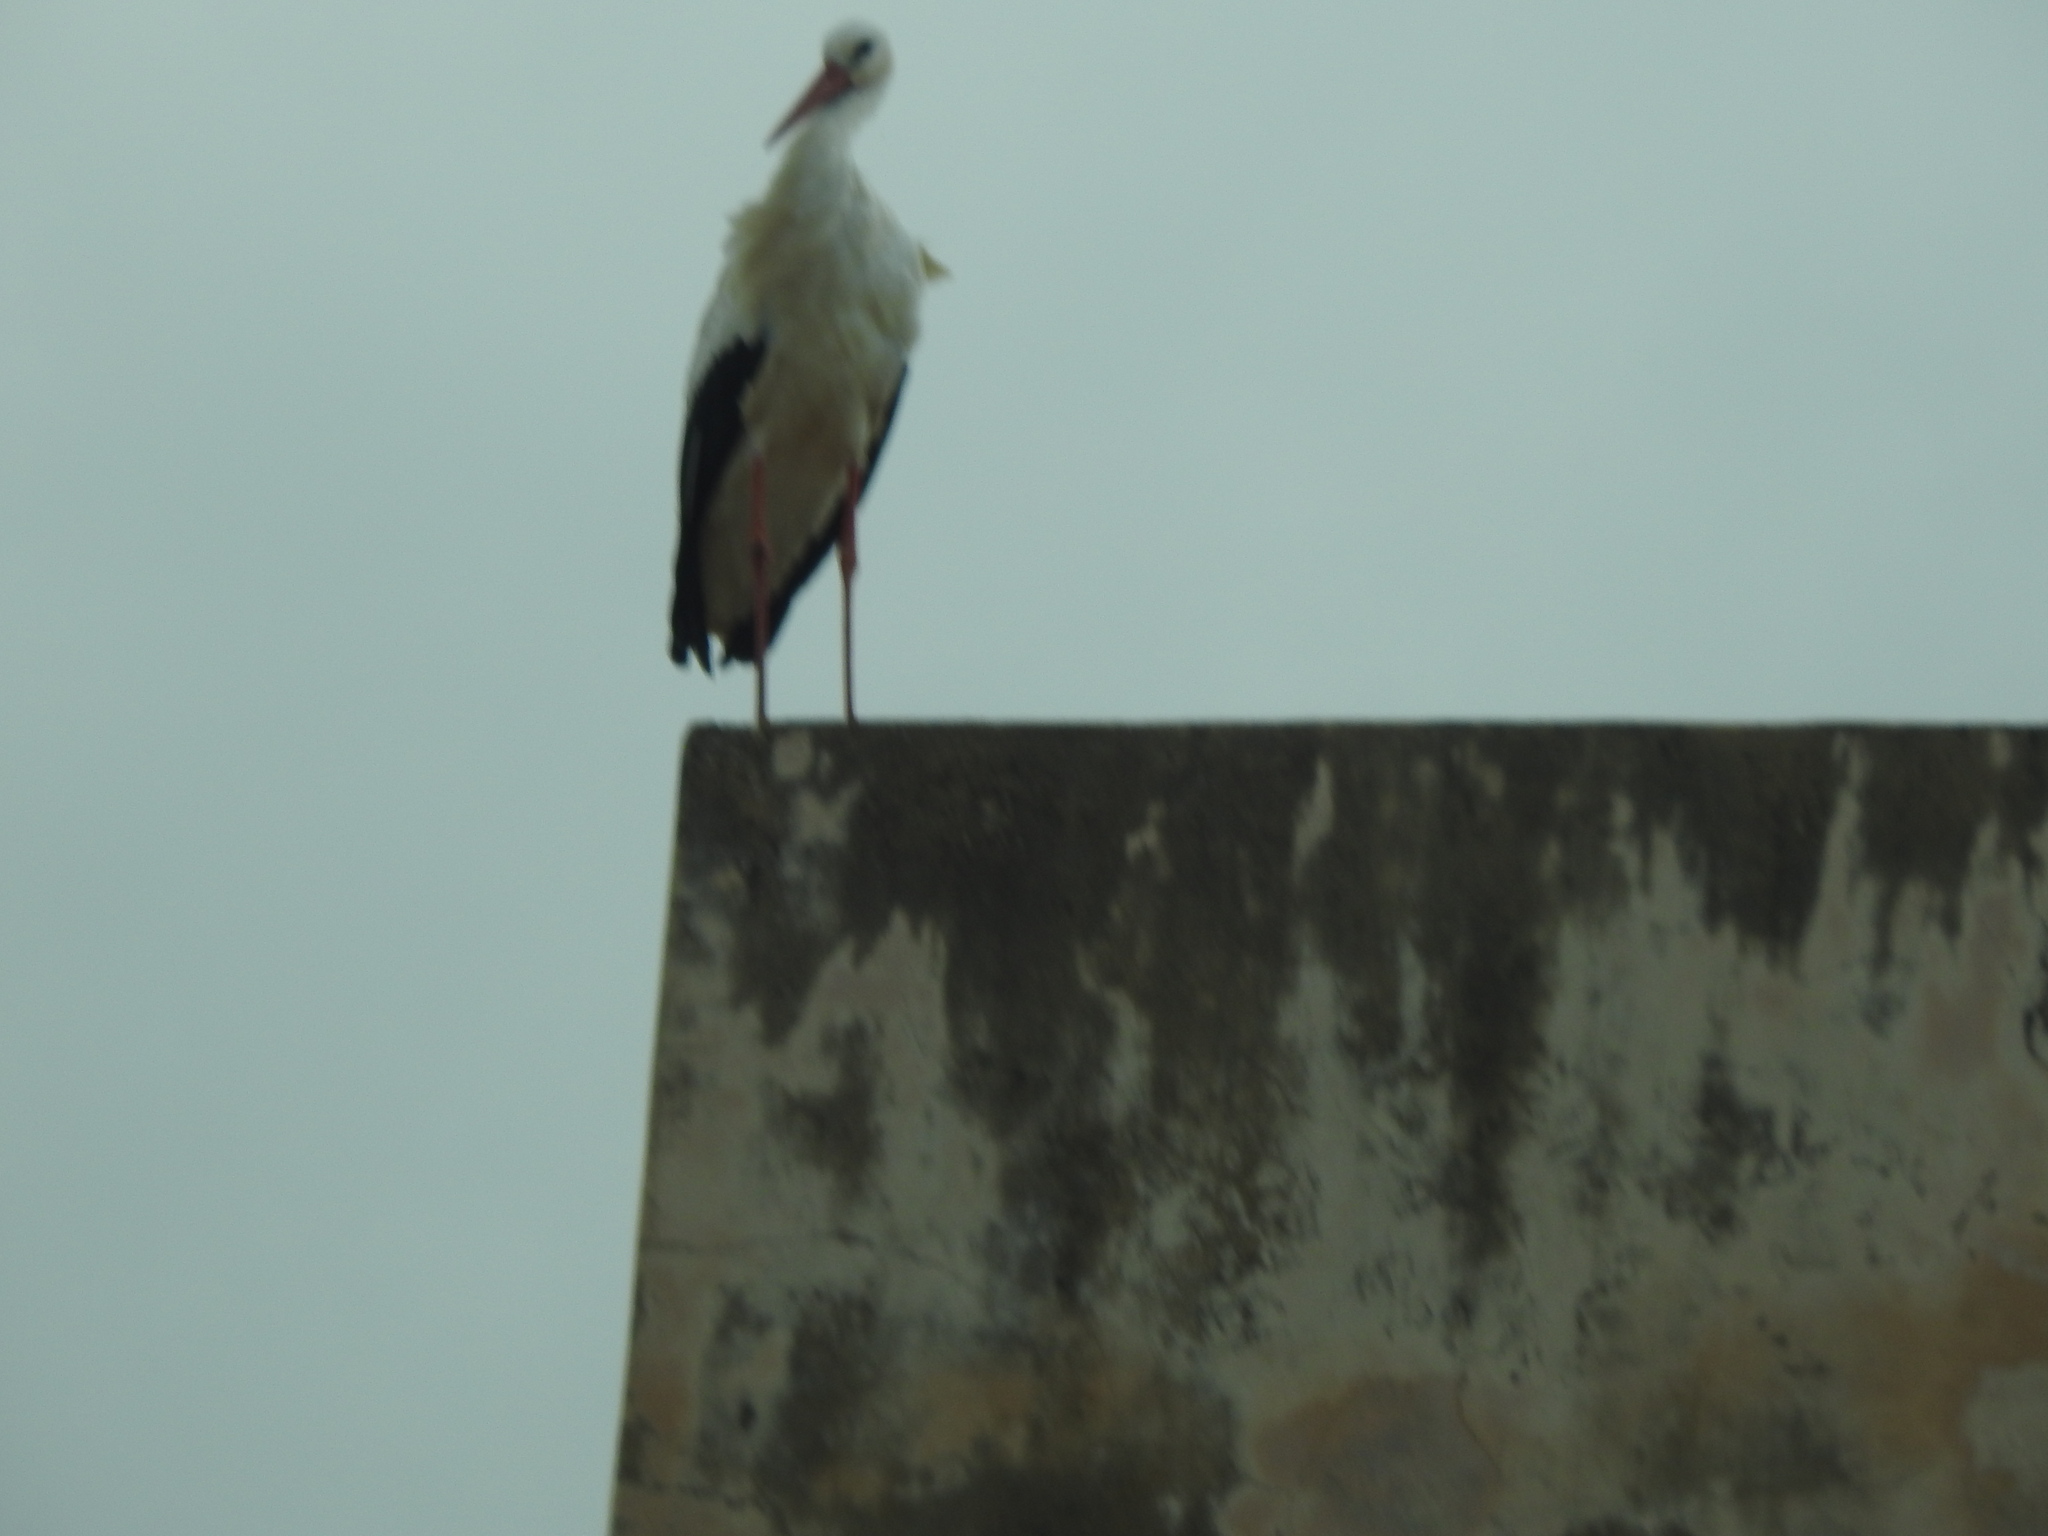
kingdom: Animalia
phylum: Chordata
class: Aves
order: Ciconiiformes
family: Ciconiidae
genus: Ciconia
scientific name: Ciconia ciconia
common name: White stork
